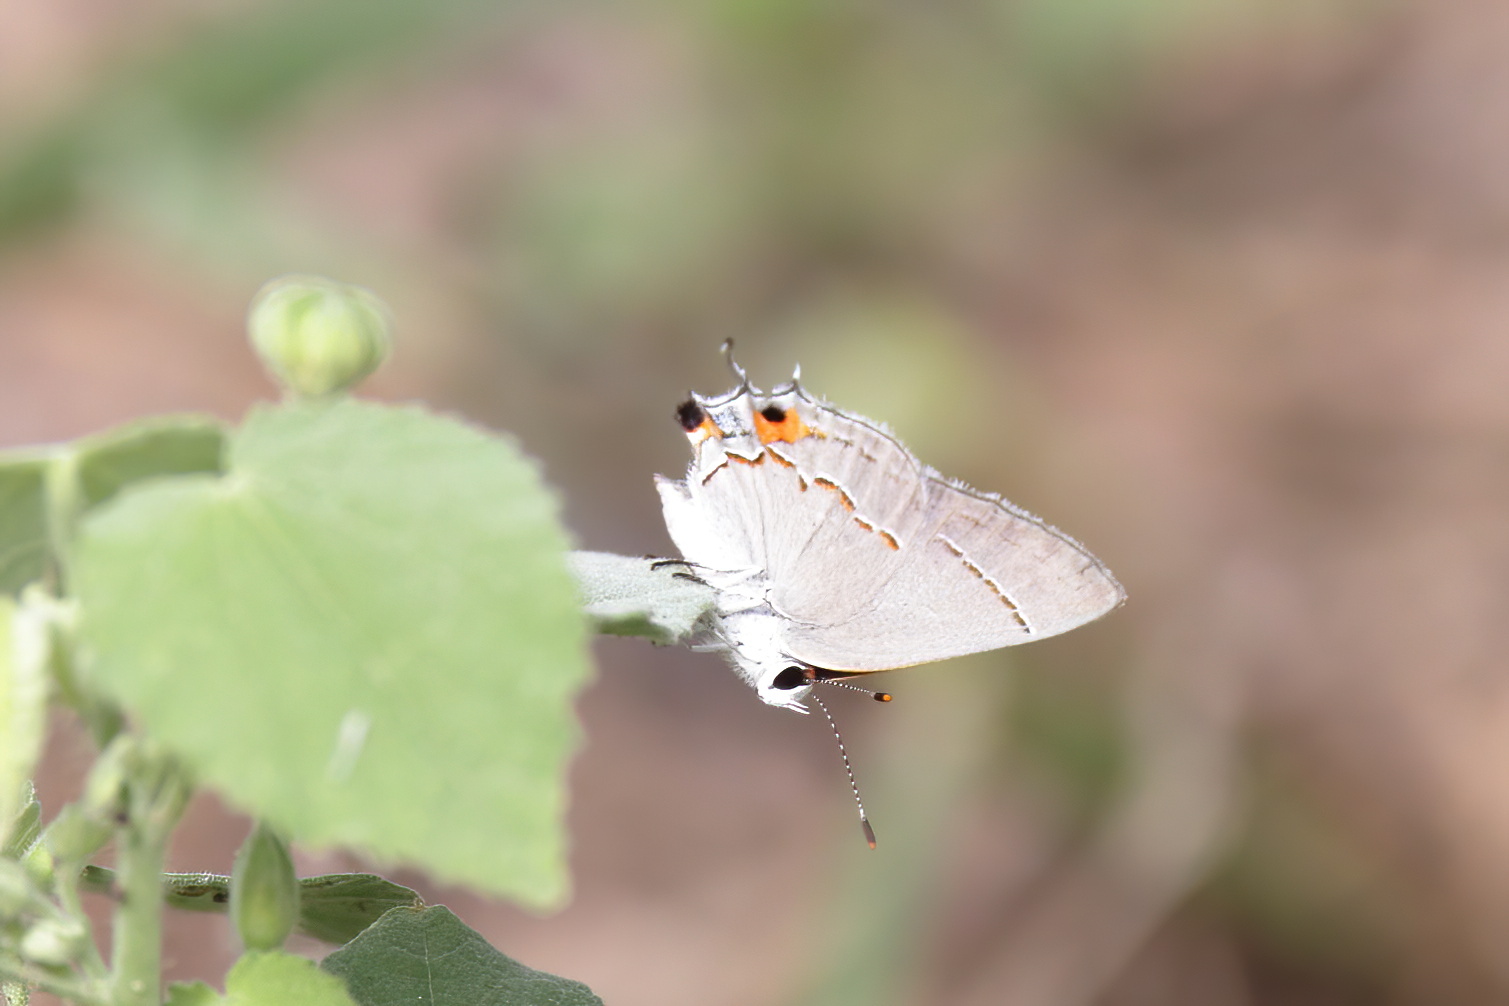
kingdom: Animalia
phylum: Arthropoda
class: Insecta
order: Lepidoptera
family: Lycaenidae
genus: Strymon
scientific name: Strymon melinus
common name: Gray hairstreak
